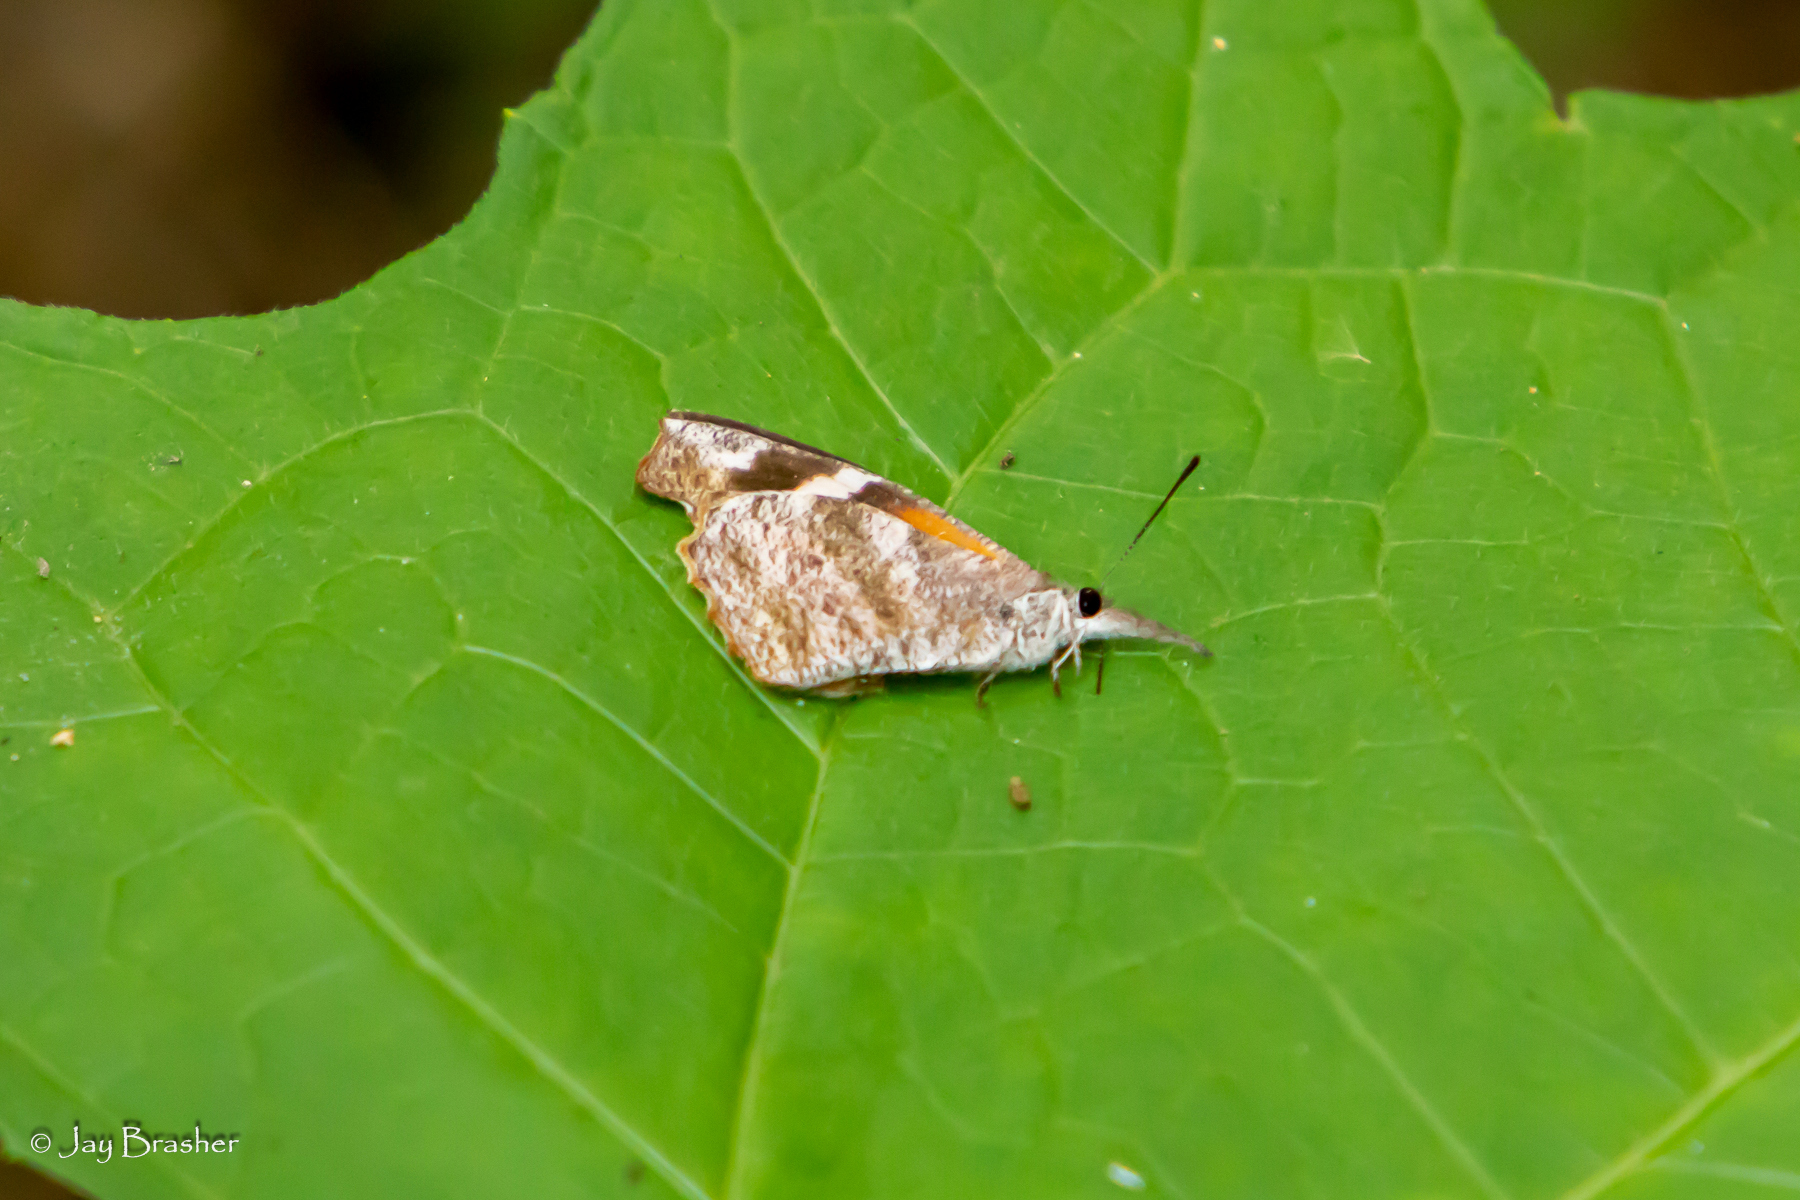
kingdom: Animalia
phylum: Arthropoda
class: Insecta
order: Lepidoptera
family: Nymphalidae
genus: Libytheana
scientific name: Libytheana carinenta
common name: American snout
